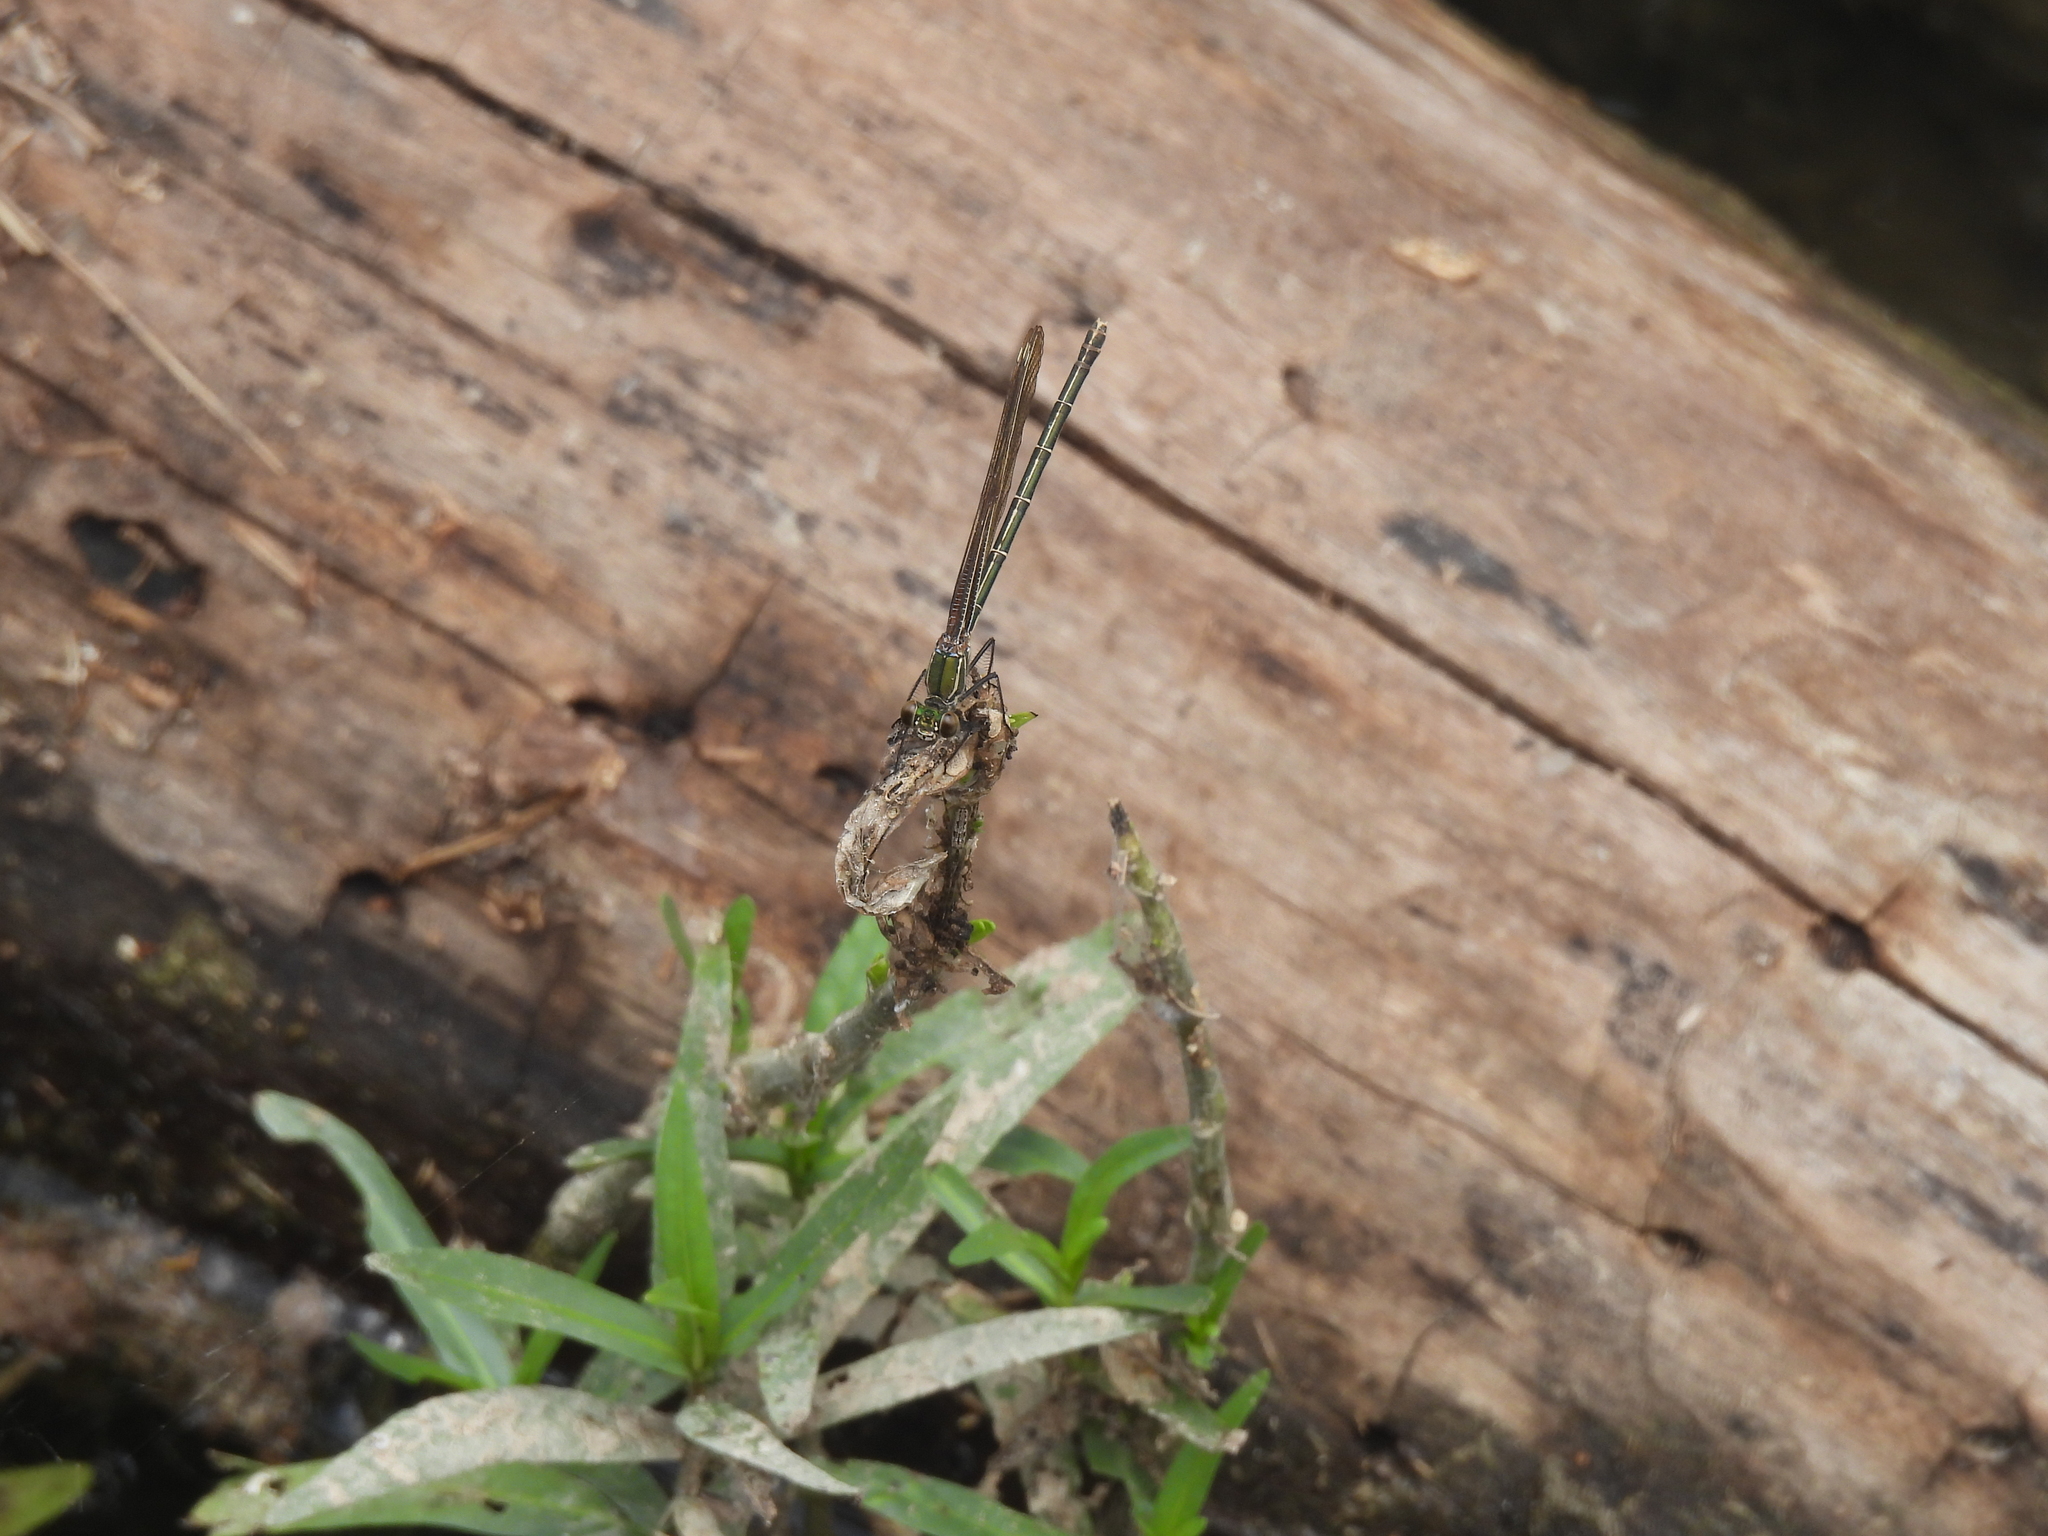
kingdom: Animalia
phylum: Arthropoda
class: Insecta
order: Odonata
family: Calopterygidae
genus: Hetaerina
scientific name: Hetaerina americana
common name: American rubyspot
